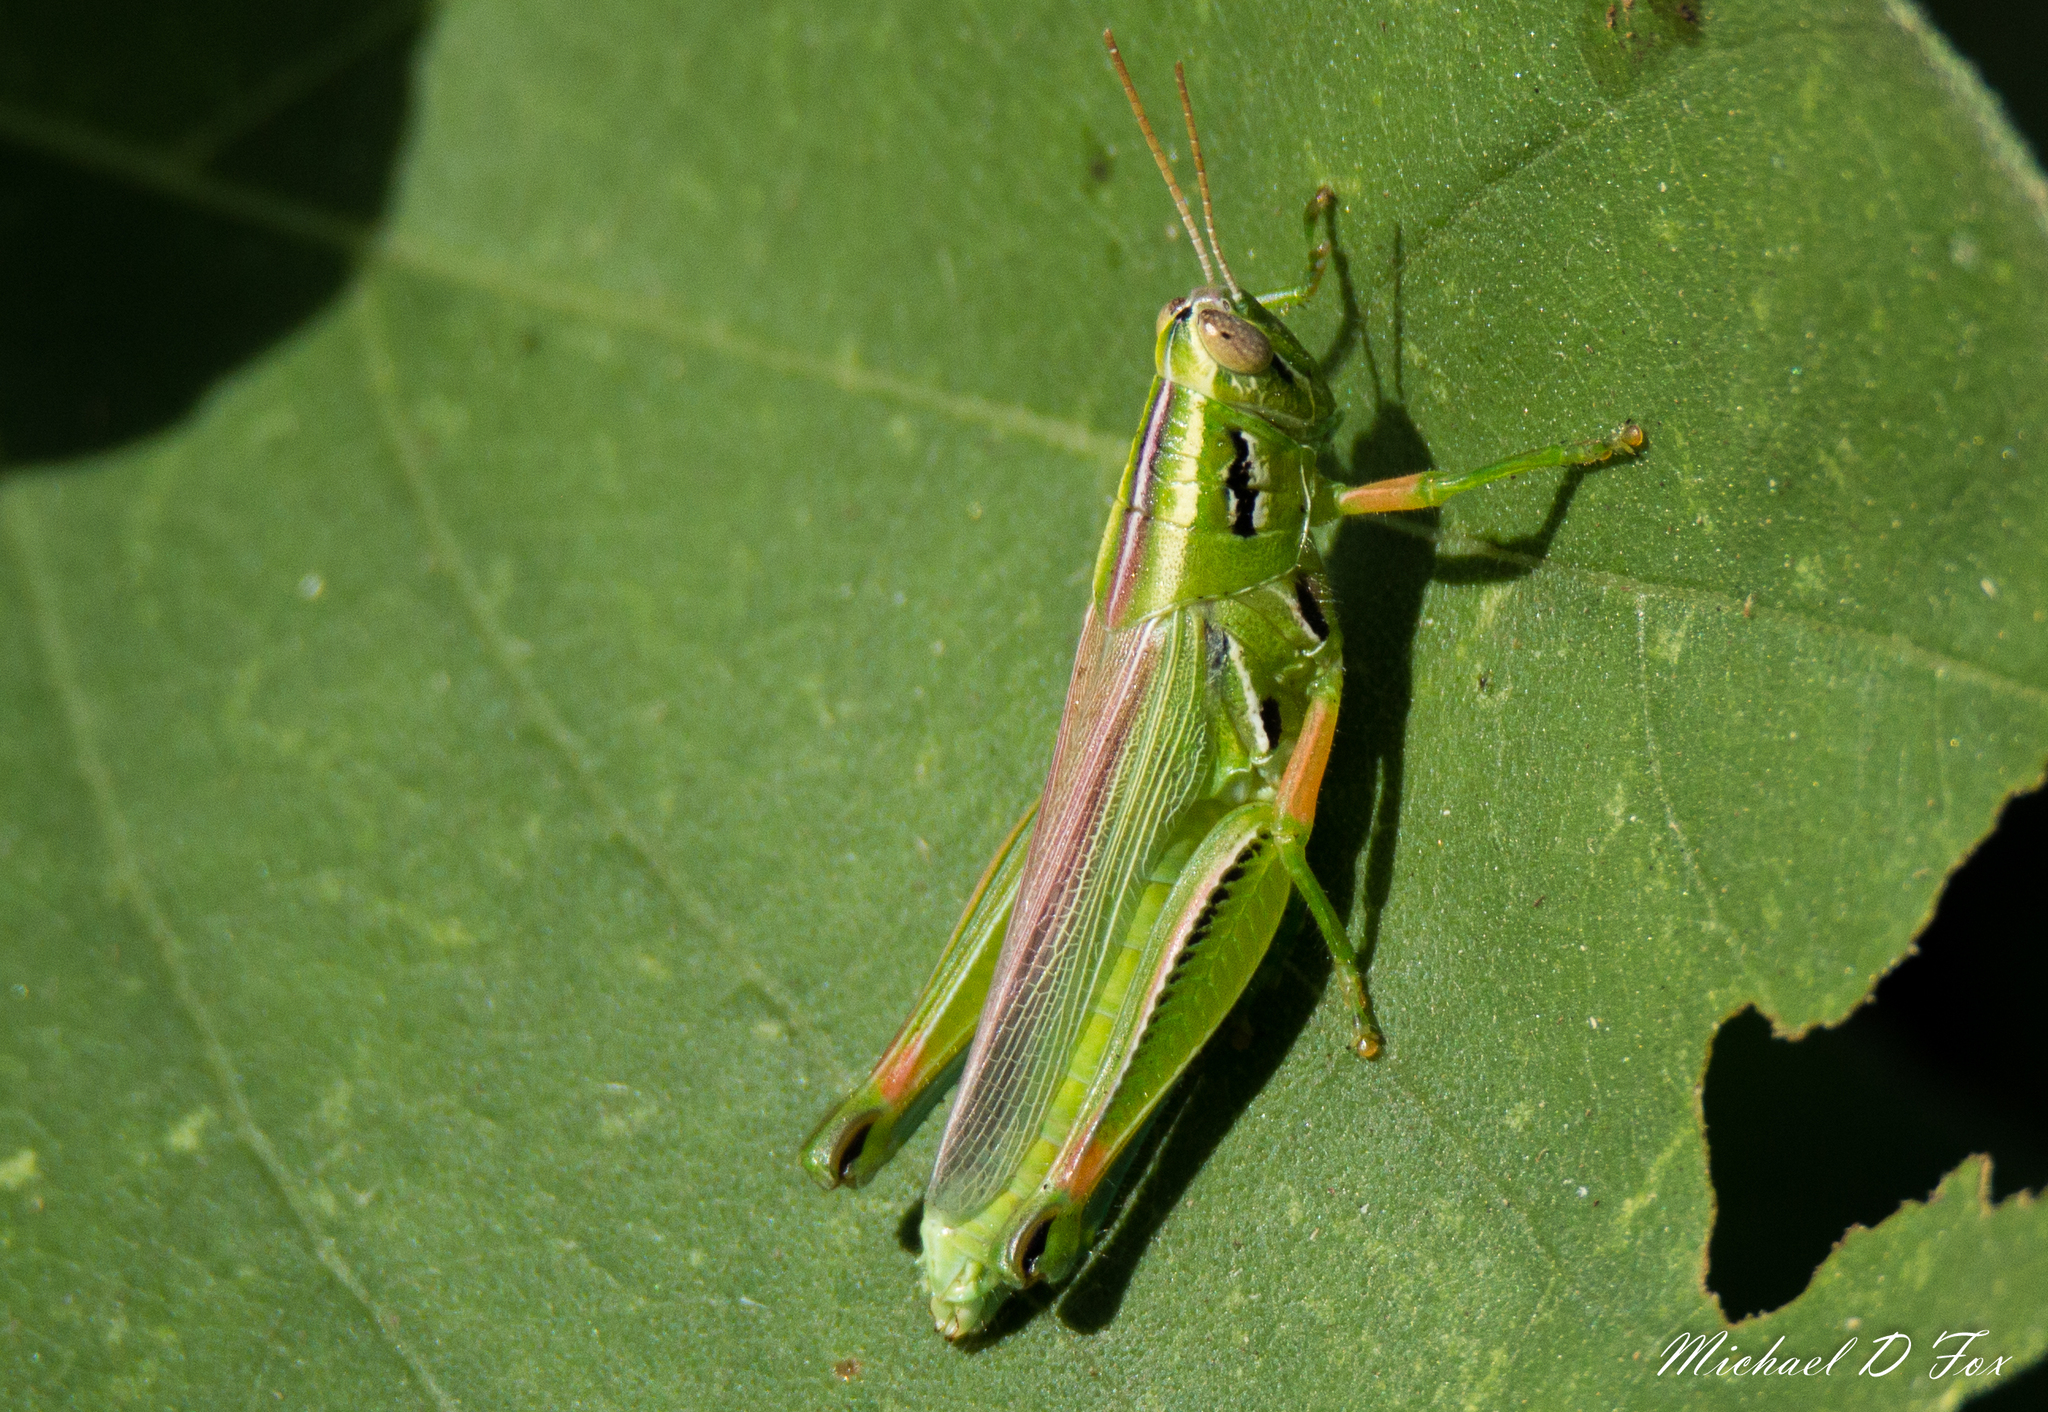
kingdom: Animalia
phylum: Arthropoda
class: Insecta
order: Orthoptera
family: Acrididae
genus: Hesperotettix
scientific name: Hesperotettix viridis
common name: Meadow purple-striped grasshopper
